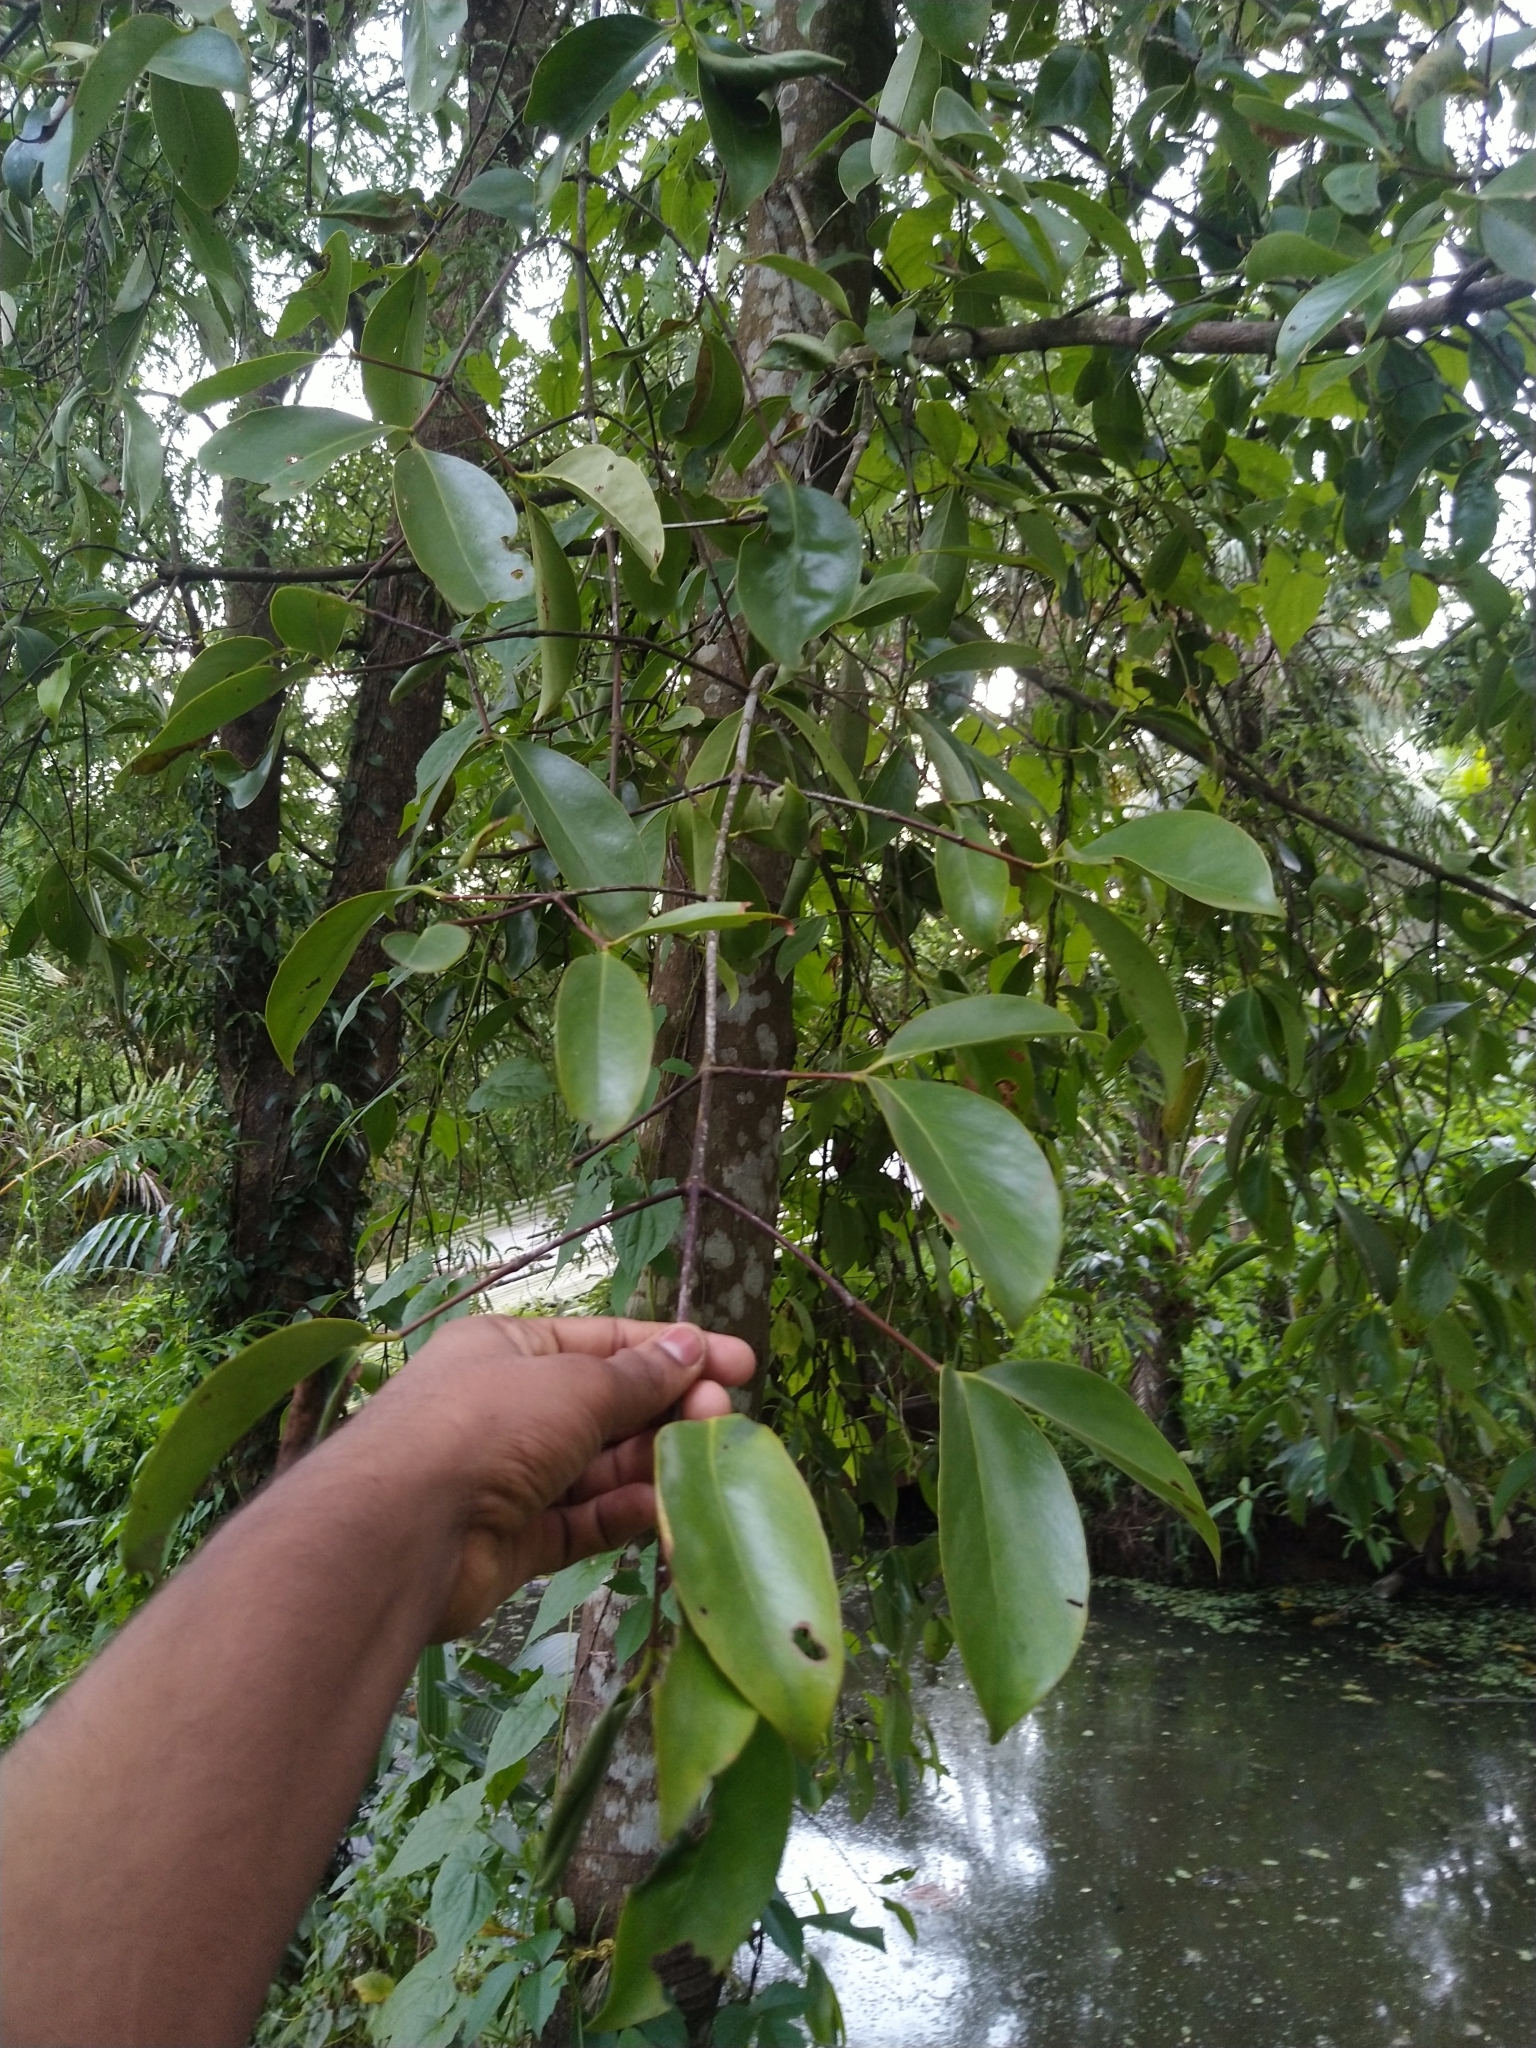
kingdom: Plantae
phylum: Tracheophyta
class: Magnoliopsida
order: Malpighiales
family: Clusiaceae
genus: Garcinia
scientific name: Garcinia gummi-gutta
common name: Malabar tamarind
